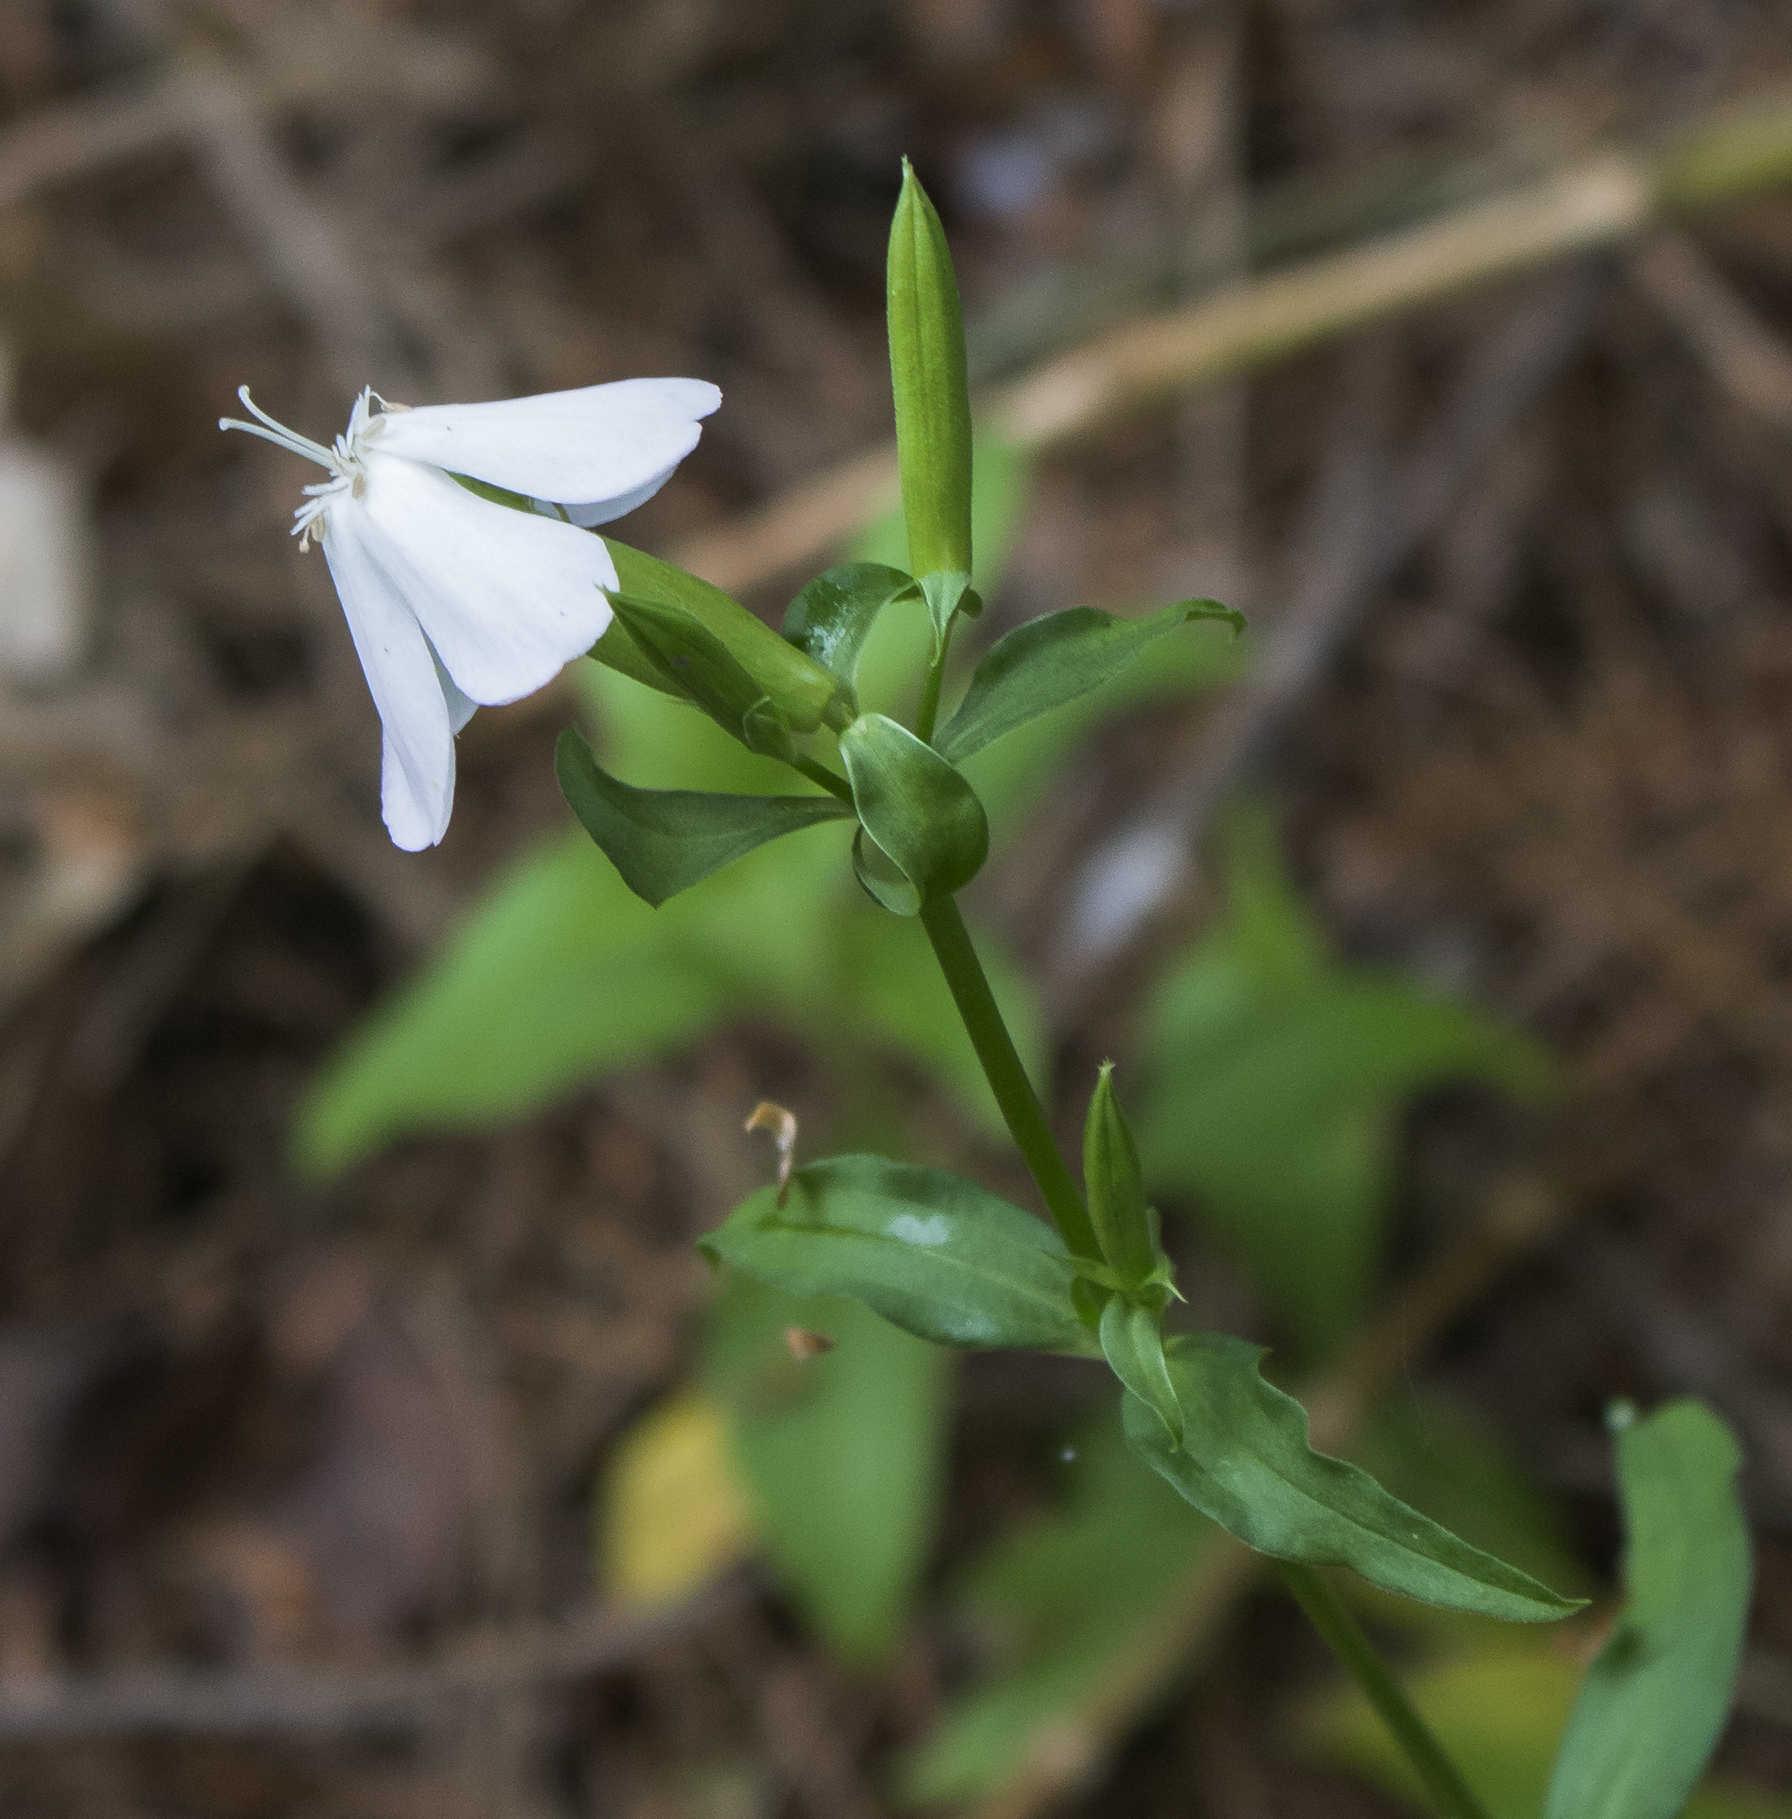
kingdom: Plantae
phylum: Tracheophyta
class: Magnoliopsida
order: Caryophyllales
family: Caryophyllaceae
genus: Saponaria
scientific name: Saponaria officinalis
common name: Soapwort
